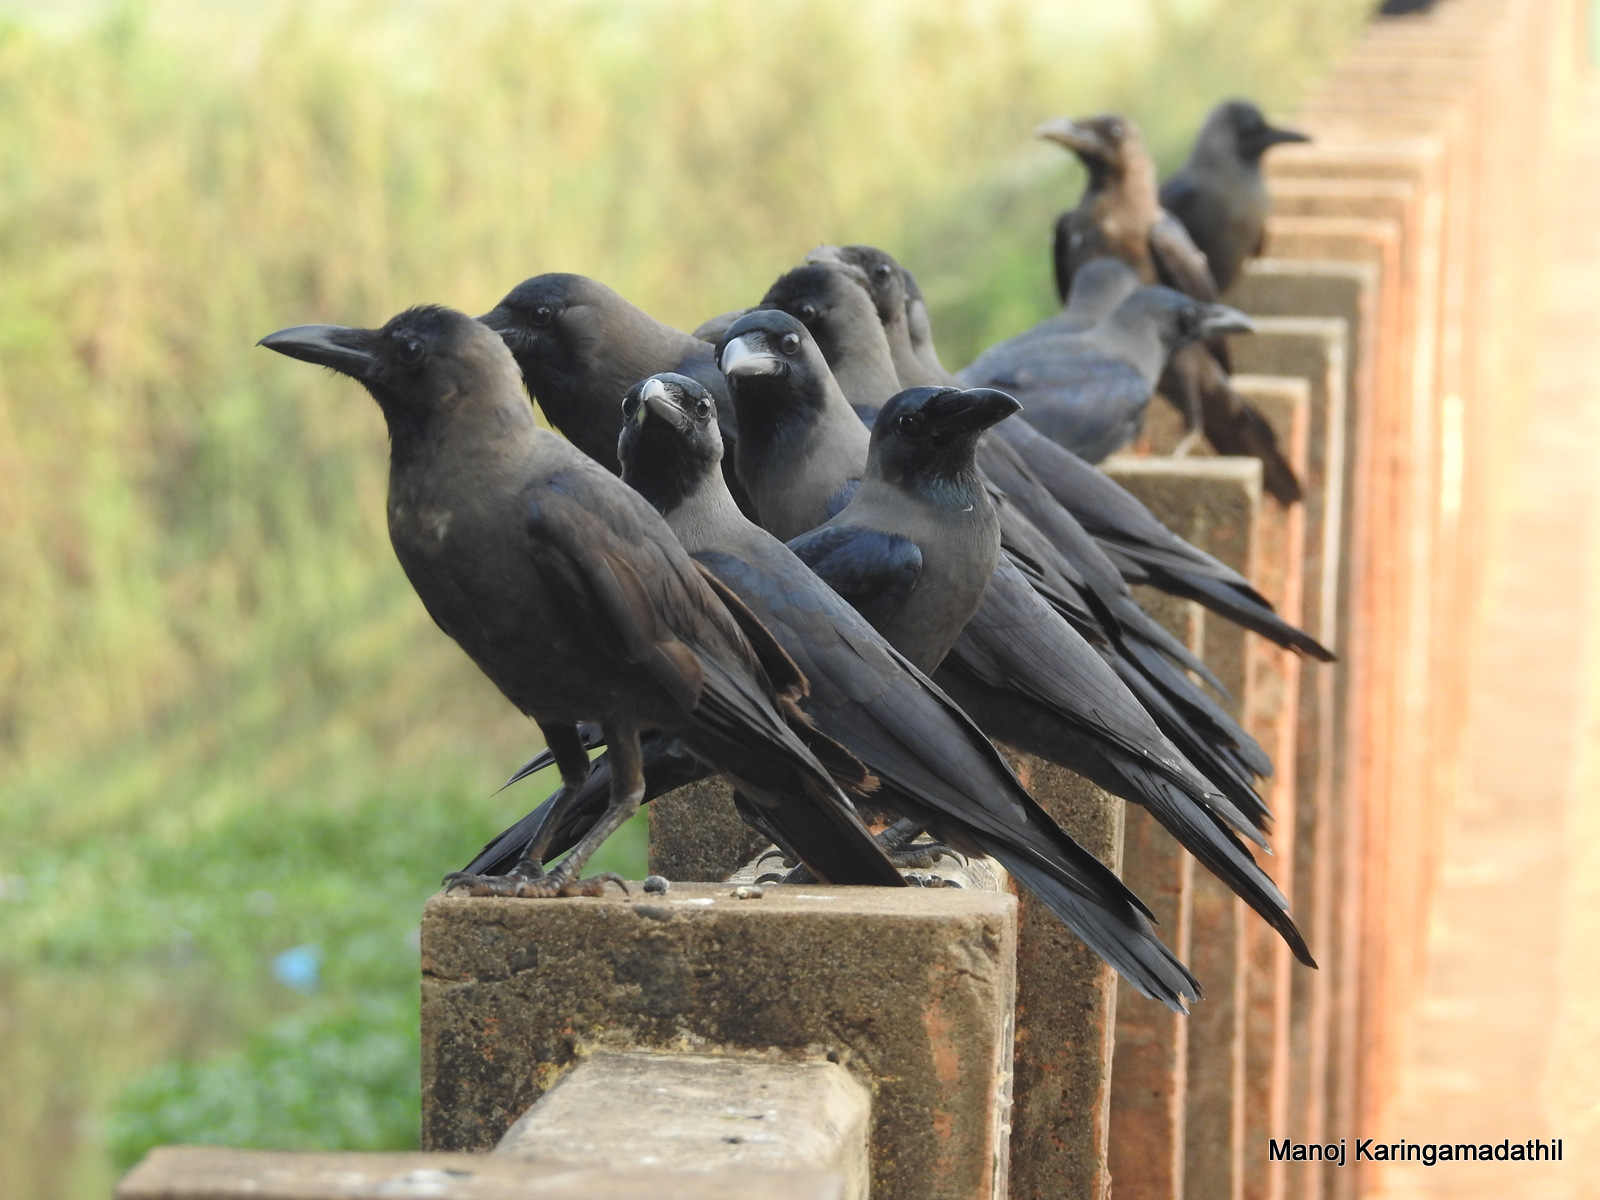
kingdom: Animalia
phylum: Chordata
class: Aves
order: Passeriformes
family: Corvidae
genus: Corvus
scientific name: Corvus splendens
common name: House crow
